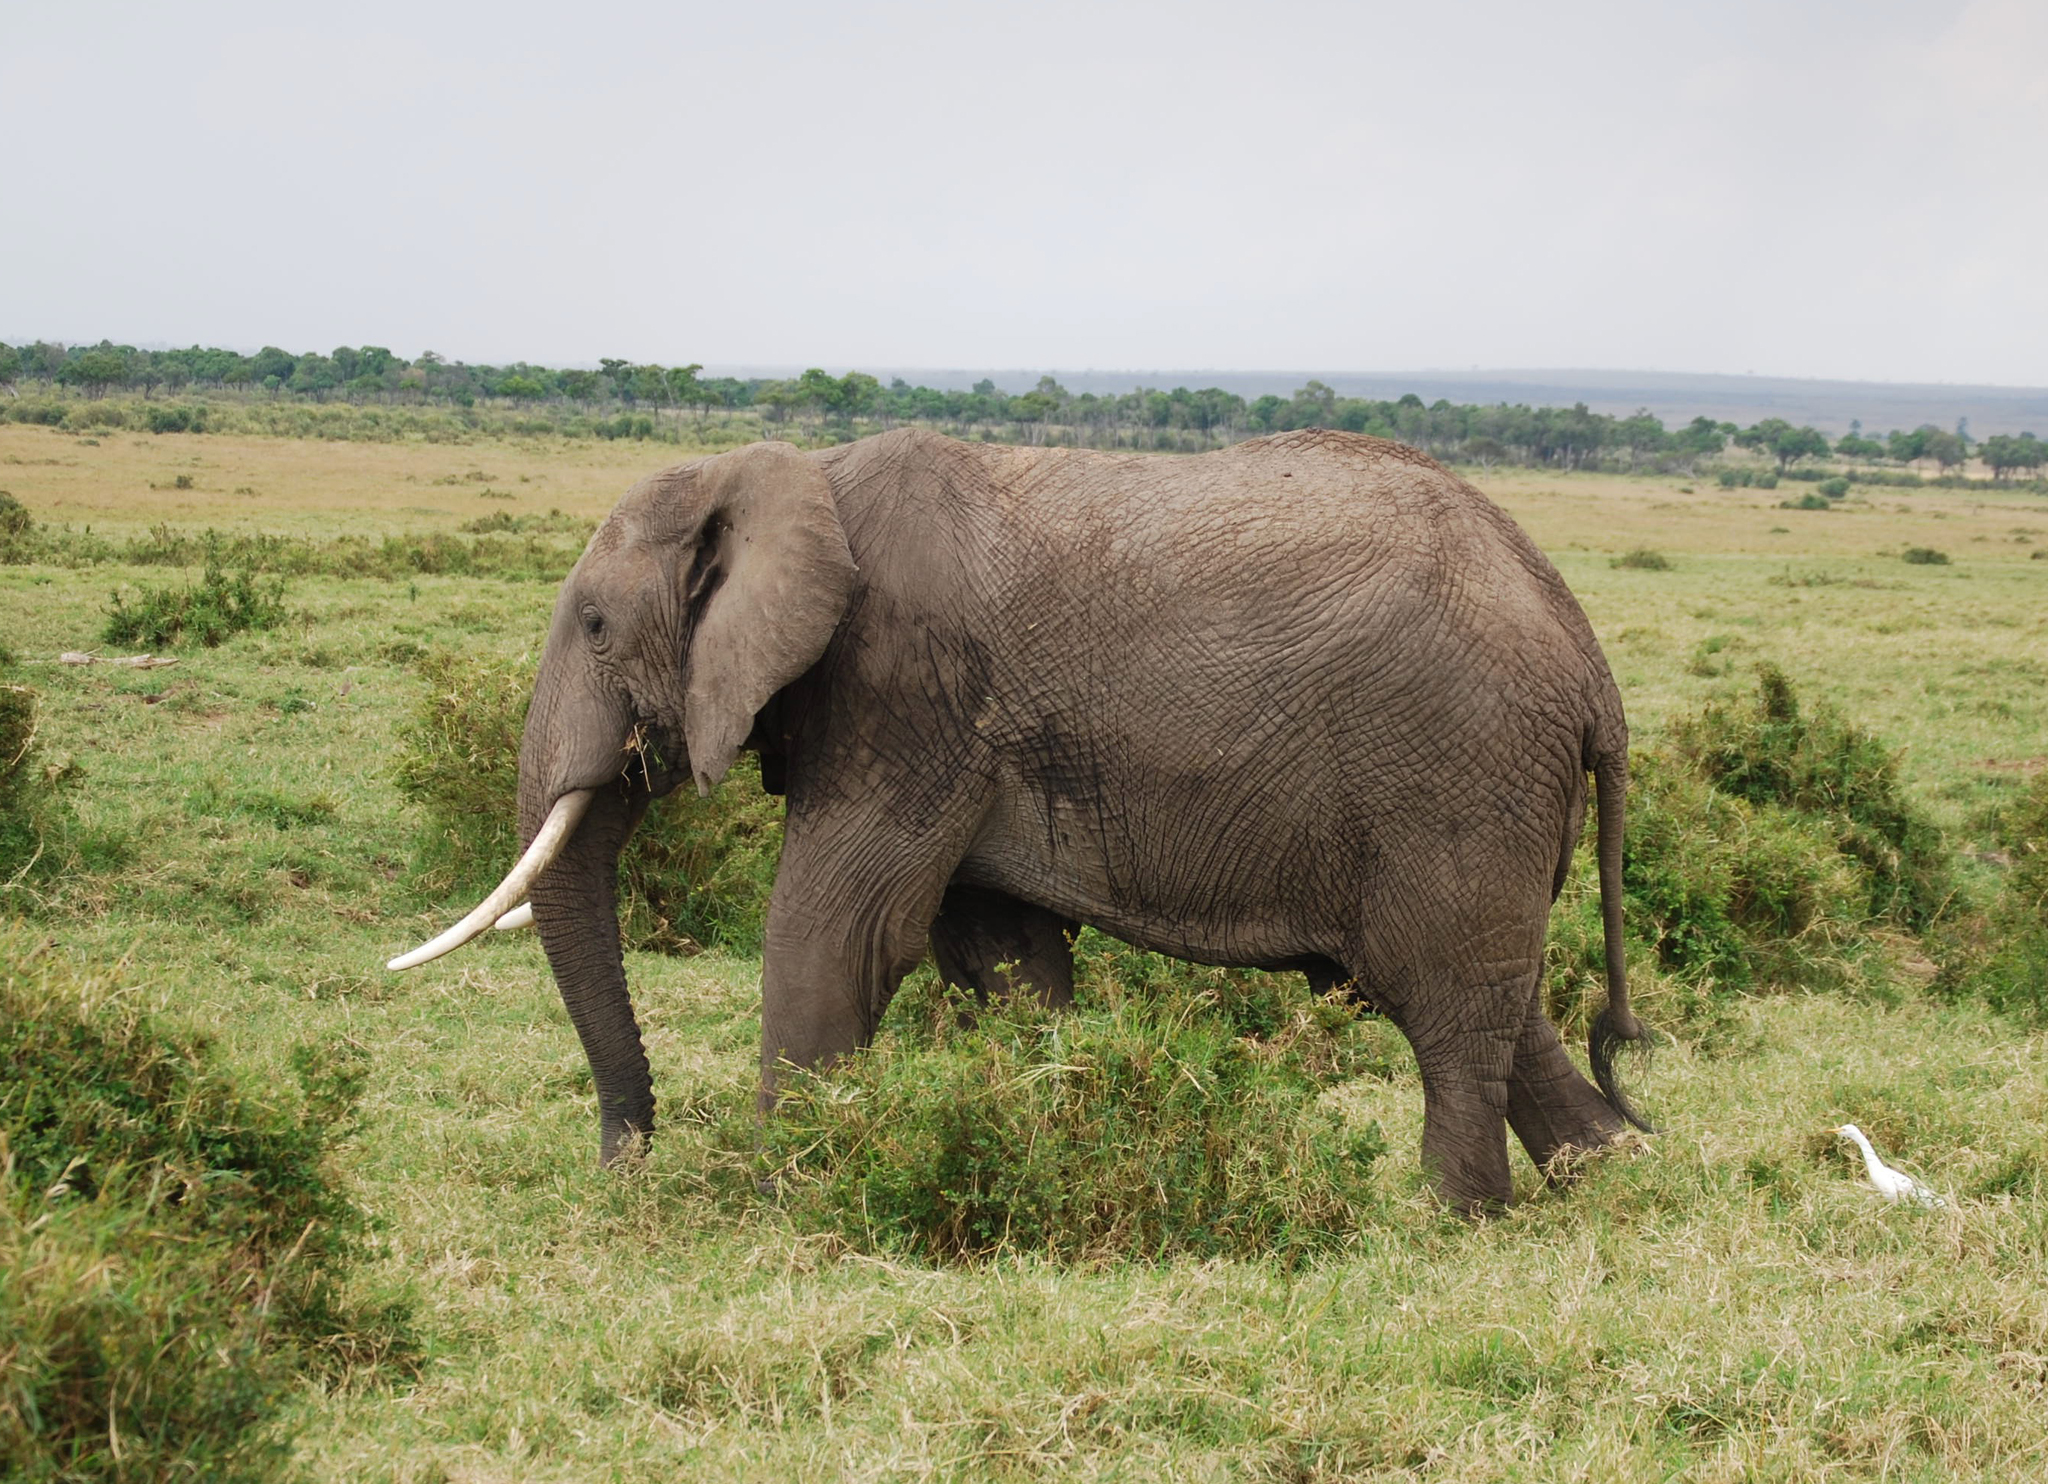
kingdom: Animalia
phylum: Chordata
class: Mammalia
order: Proboscidea
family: Elephantidae
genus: Loxodonta
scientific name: Loxodonta africana
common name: African elephant
